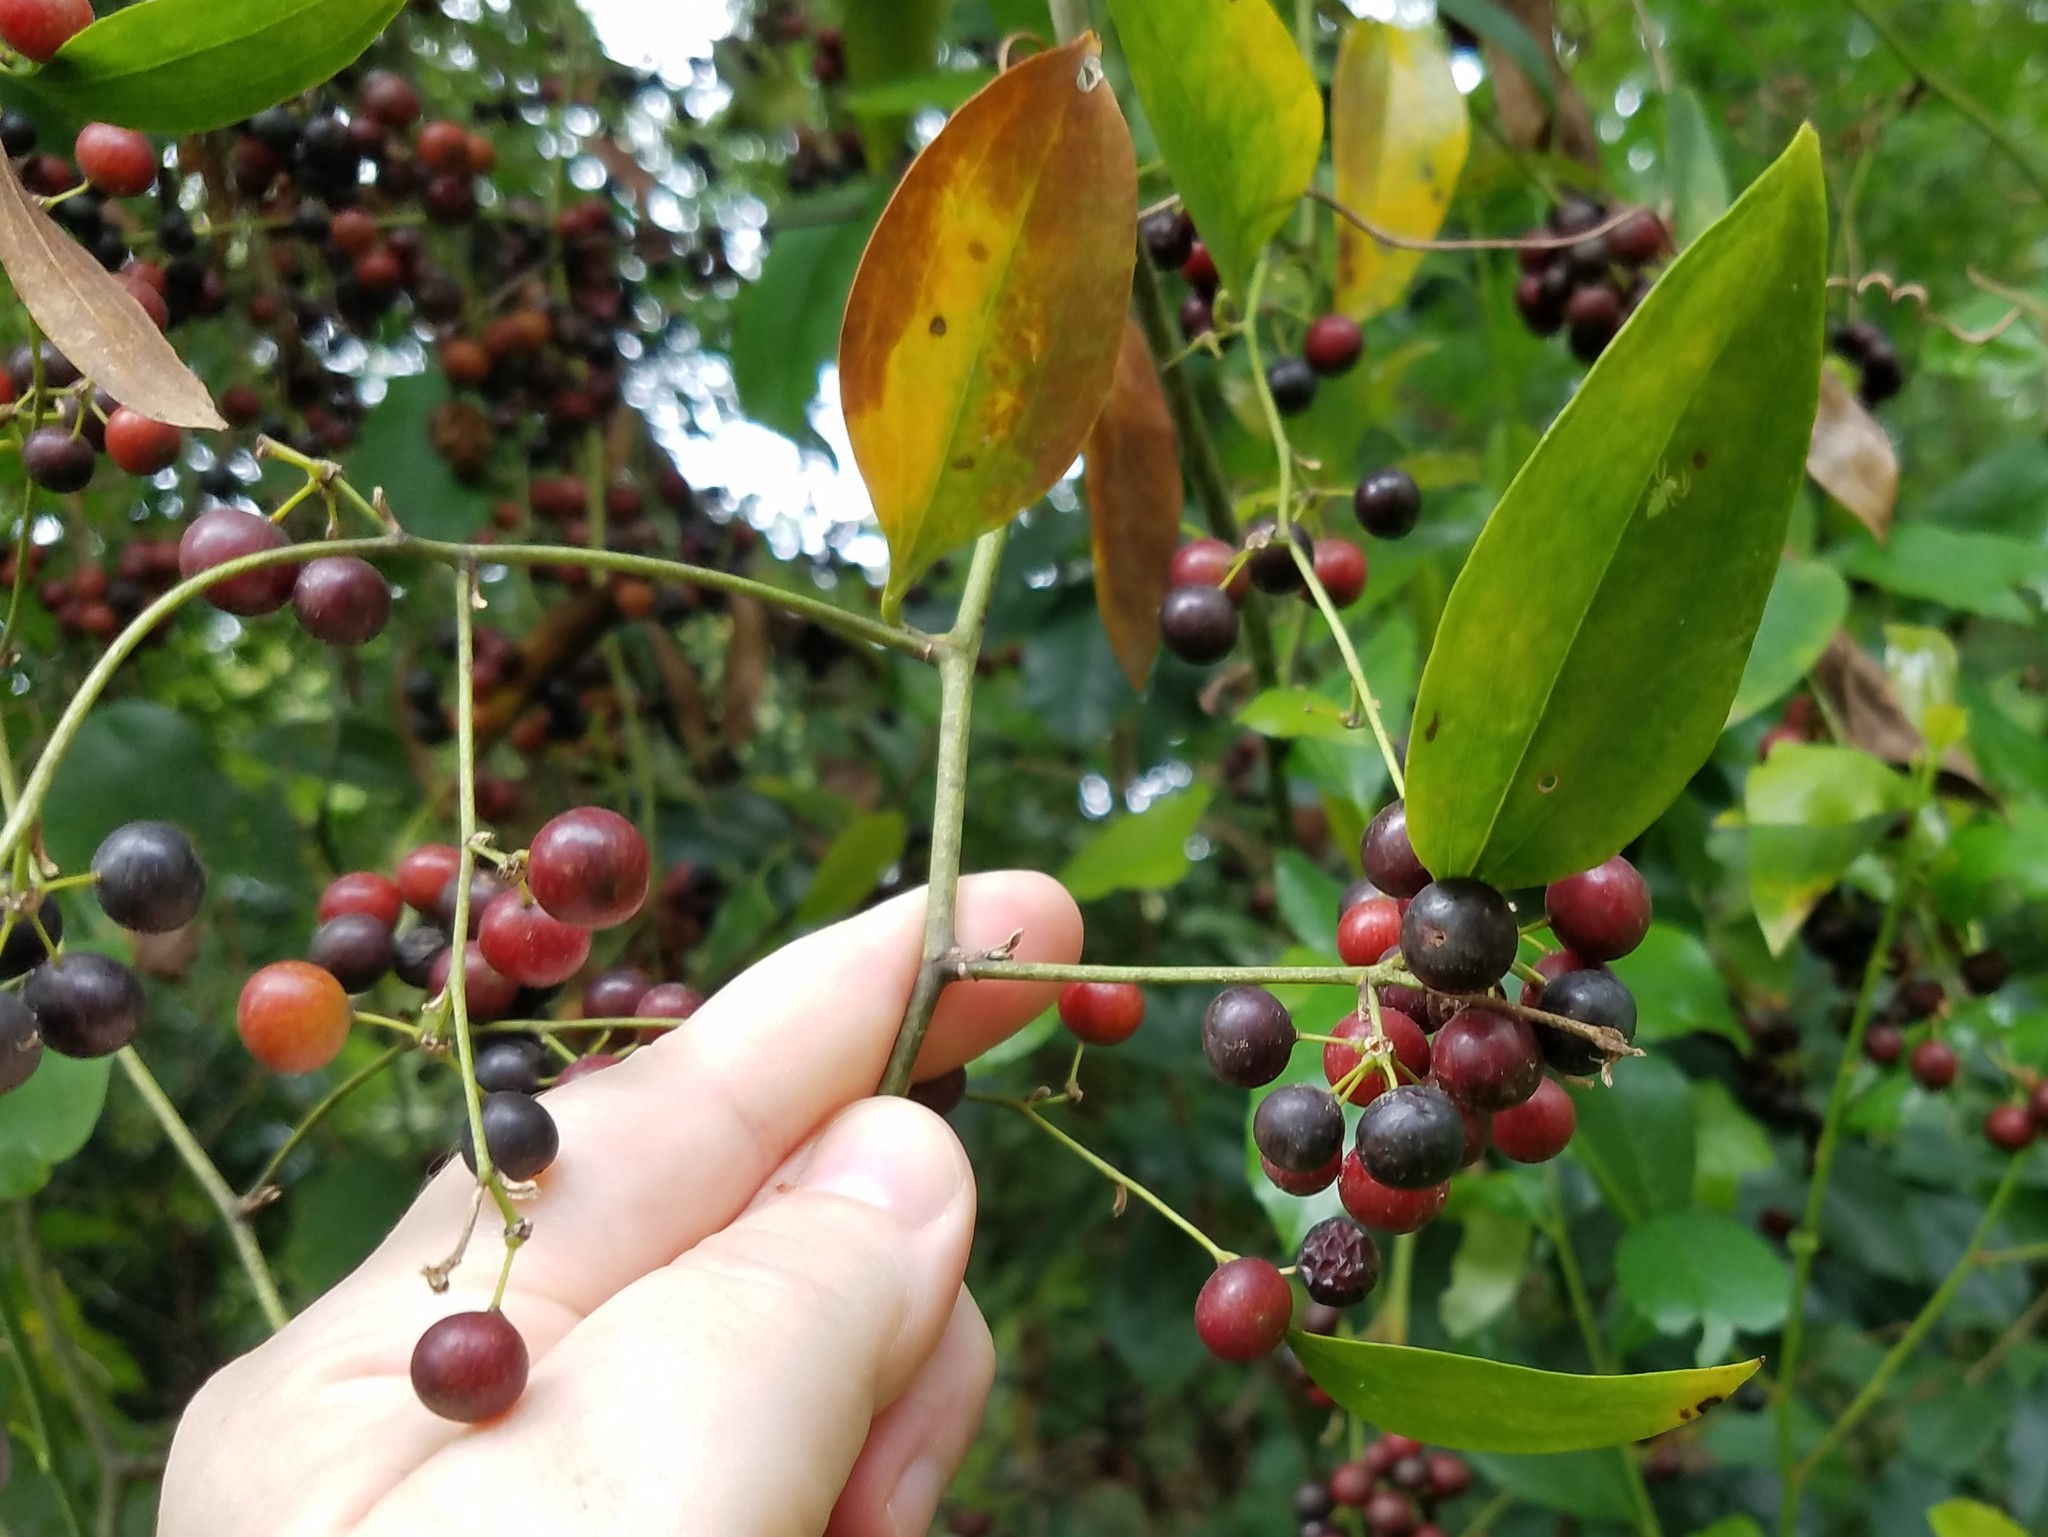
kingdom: Plantae
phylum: Tracheophyta
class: Liliopsida
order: Liliales
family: Smilacaceae
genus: Smilax
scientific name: Smilax maritima
